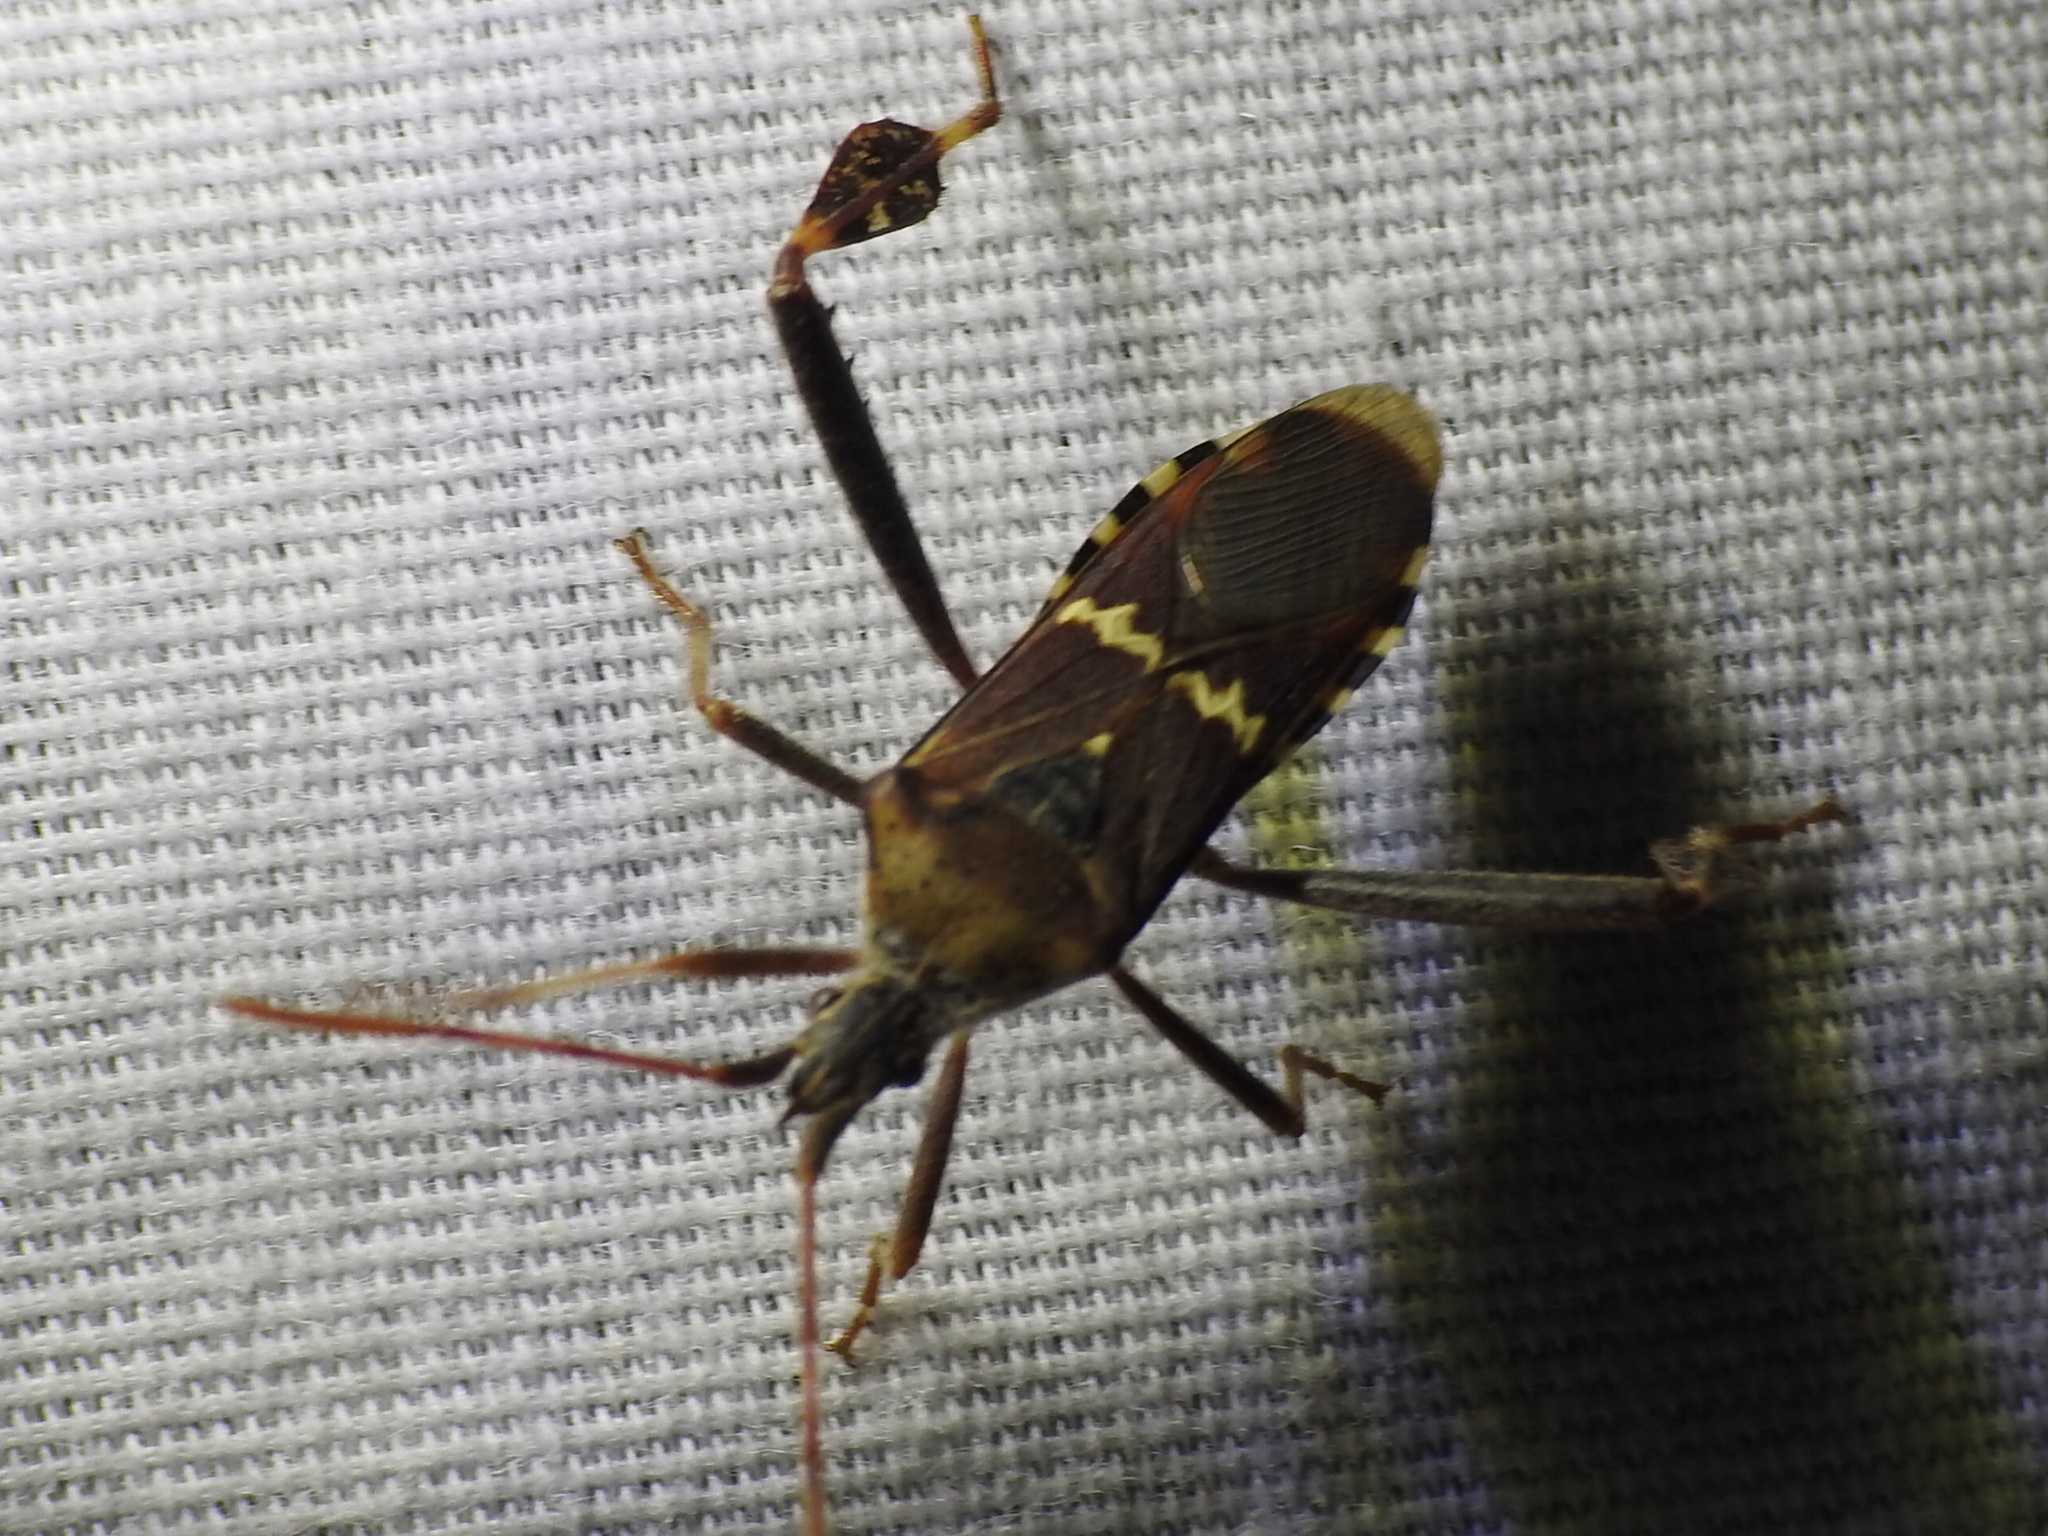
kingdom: Animalia
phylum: Arthropoda
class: Insecta
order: Hemiptera
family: Coreidae
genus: Leptoglossus
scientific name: Leptoglossus clypealis
